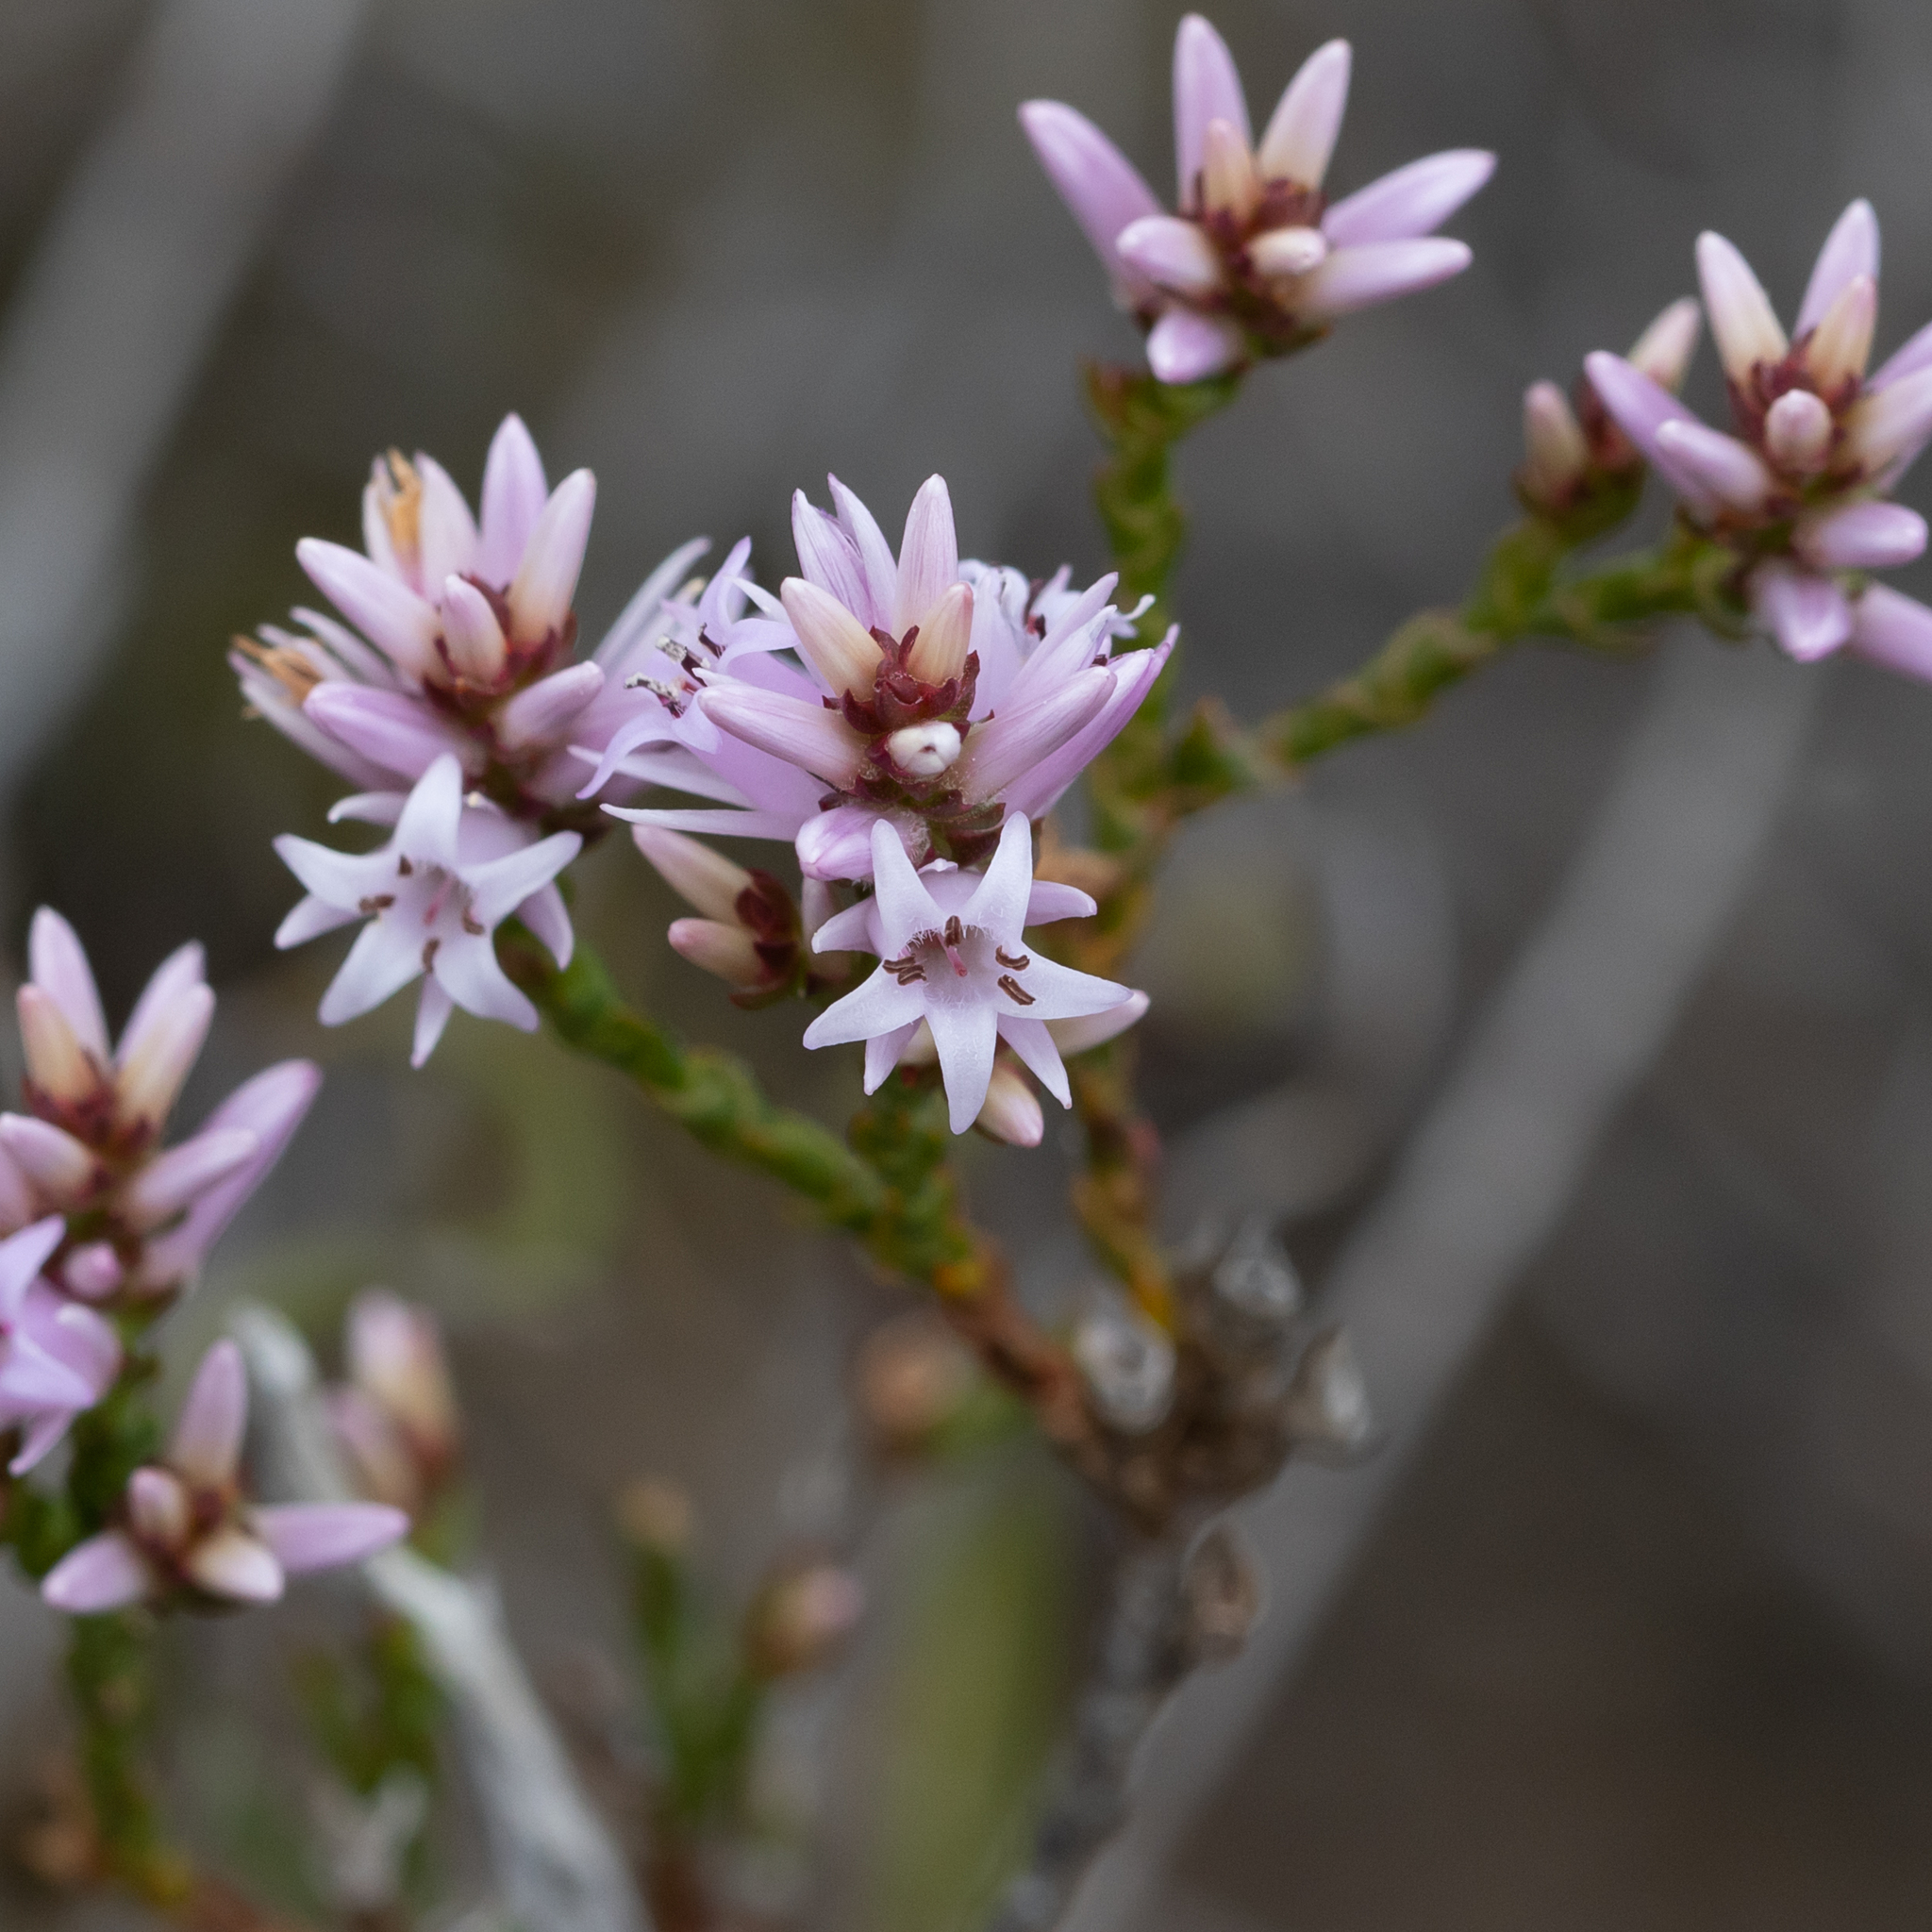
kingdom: Plantae
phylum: Tracheophyta
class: Magnoliopsida
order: Ericales
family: Ericaceae
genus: Andersonia
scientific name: Andersonia parvifolia
